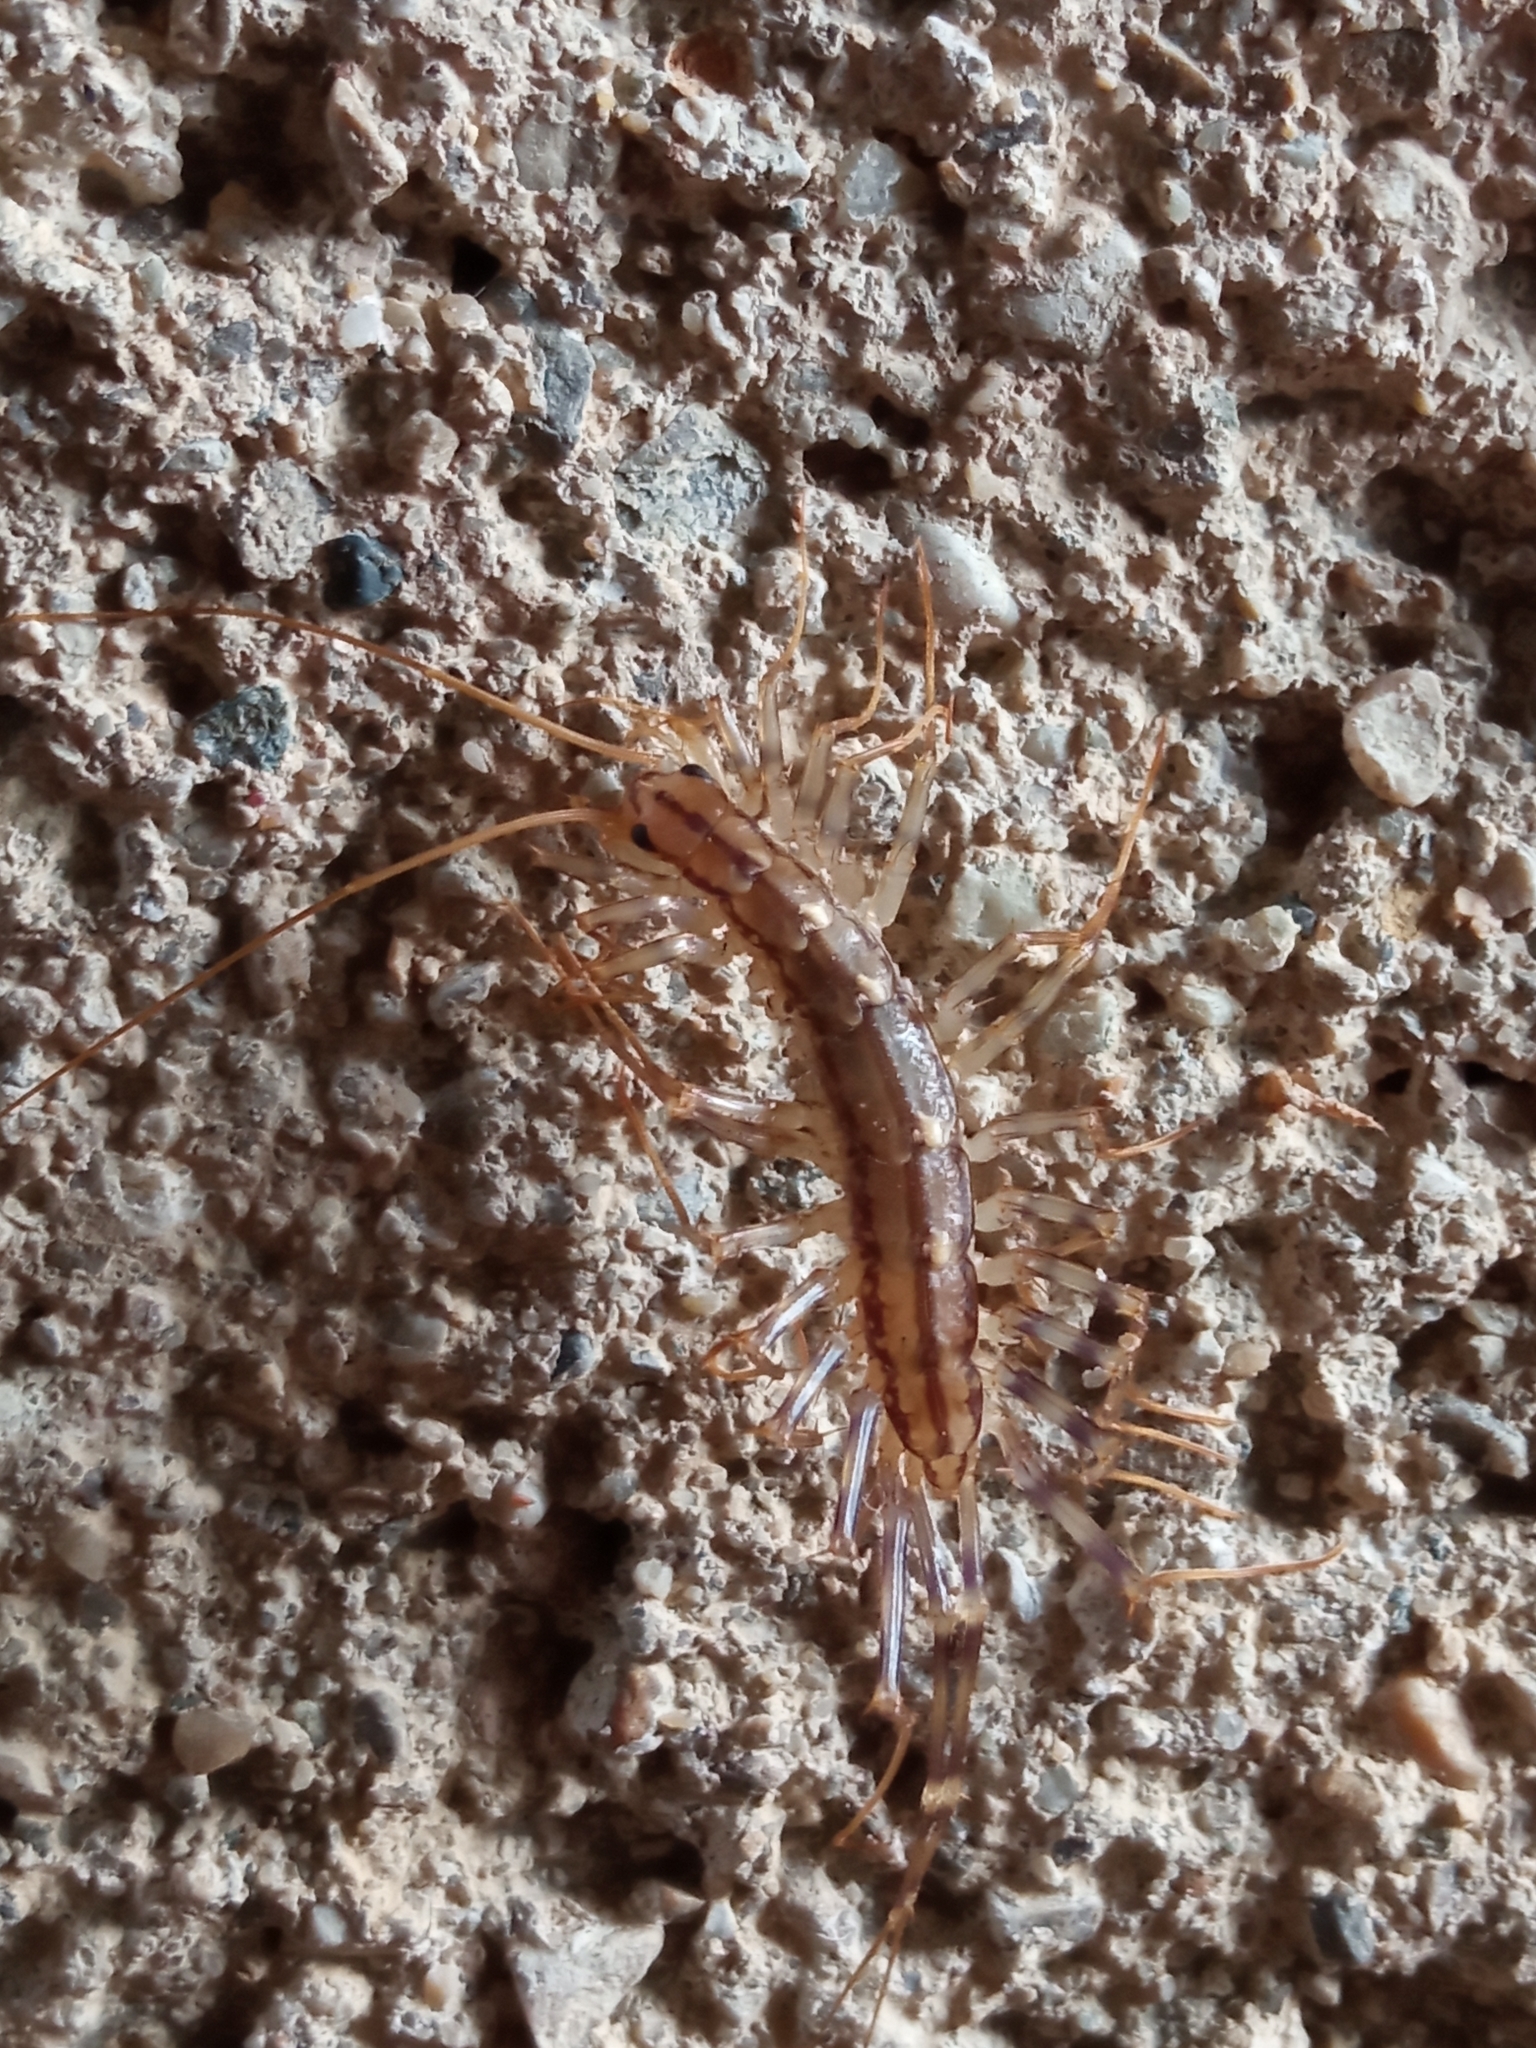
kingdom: Animalia
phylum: Arthropoda
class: Chilopoda
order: Scutigeromorpha
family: Scutigeridae
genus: Scutigera
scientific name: Scutigera coleoptrata
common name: House centipede
